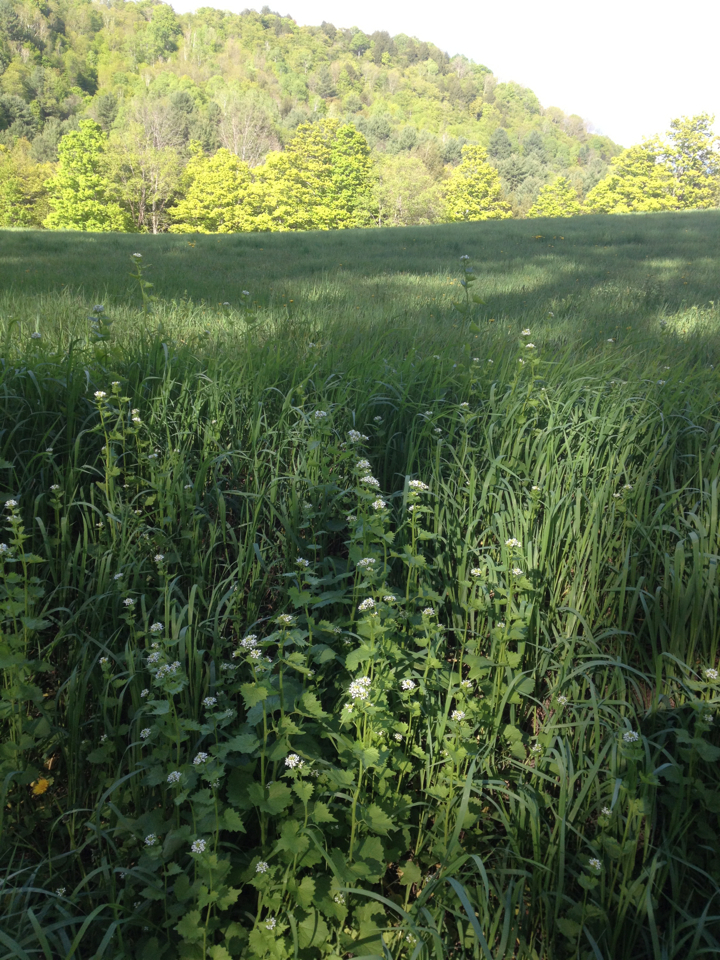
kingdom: Plantae
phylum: Tracheophyta
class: Magnoliopsida
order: Brassicales
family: Brassicaceae
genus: Alliaria
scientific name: Alliaria petiolata
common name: Garlic mustard
